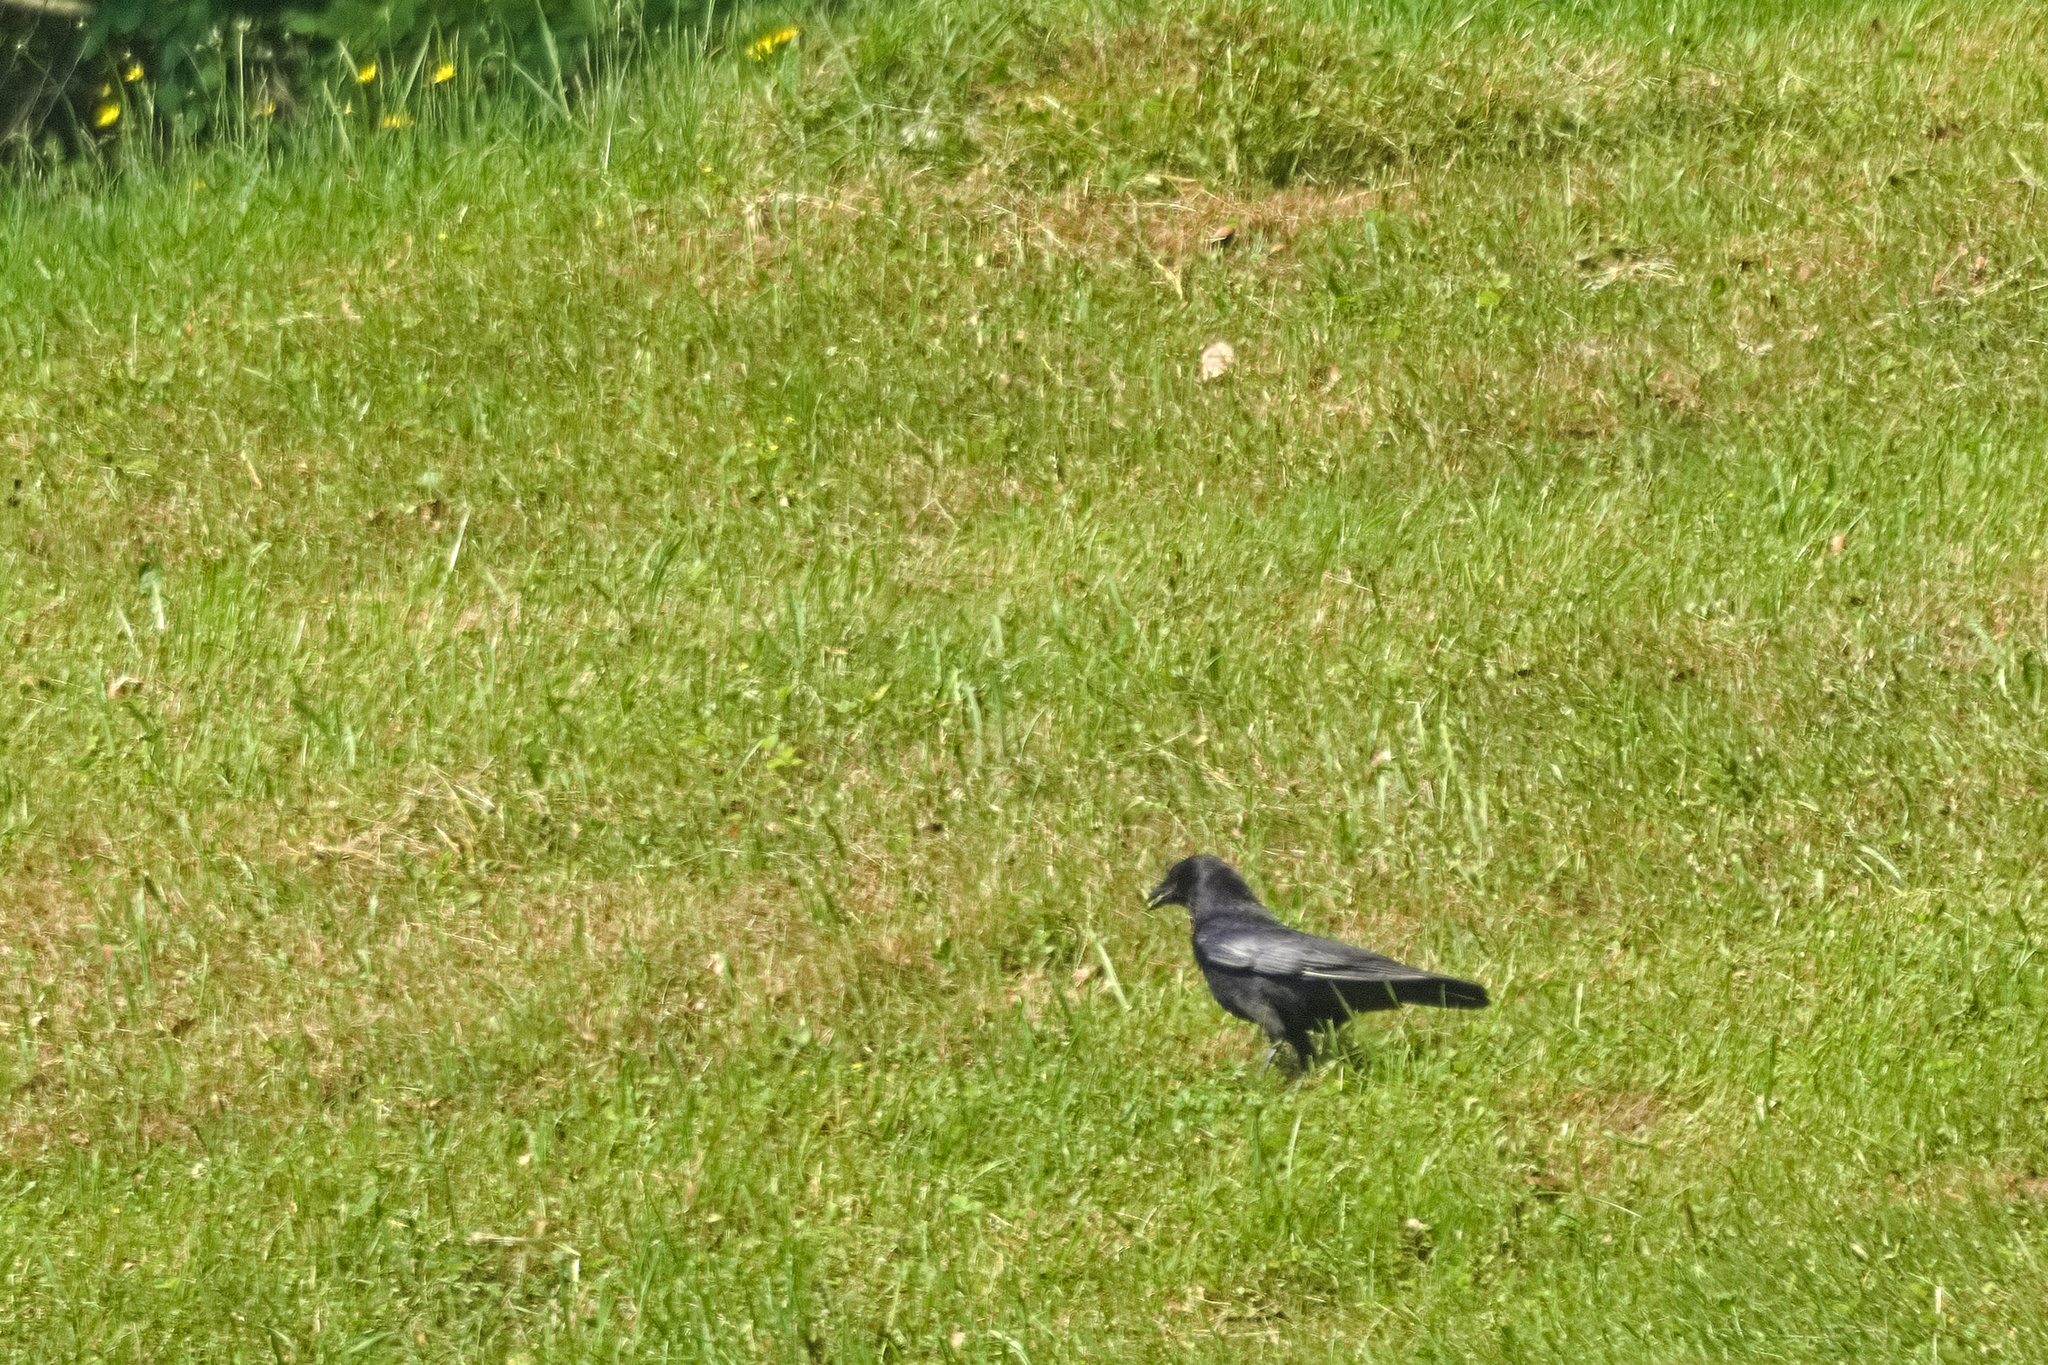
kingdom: Animalia
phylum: Chordata
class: Aves
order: Passeriformes
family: Corvidae
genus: Corvus
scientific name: Corvus corone
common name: Carrion crow
